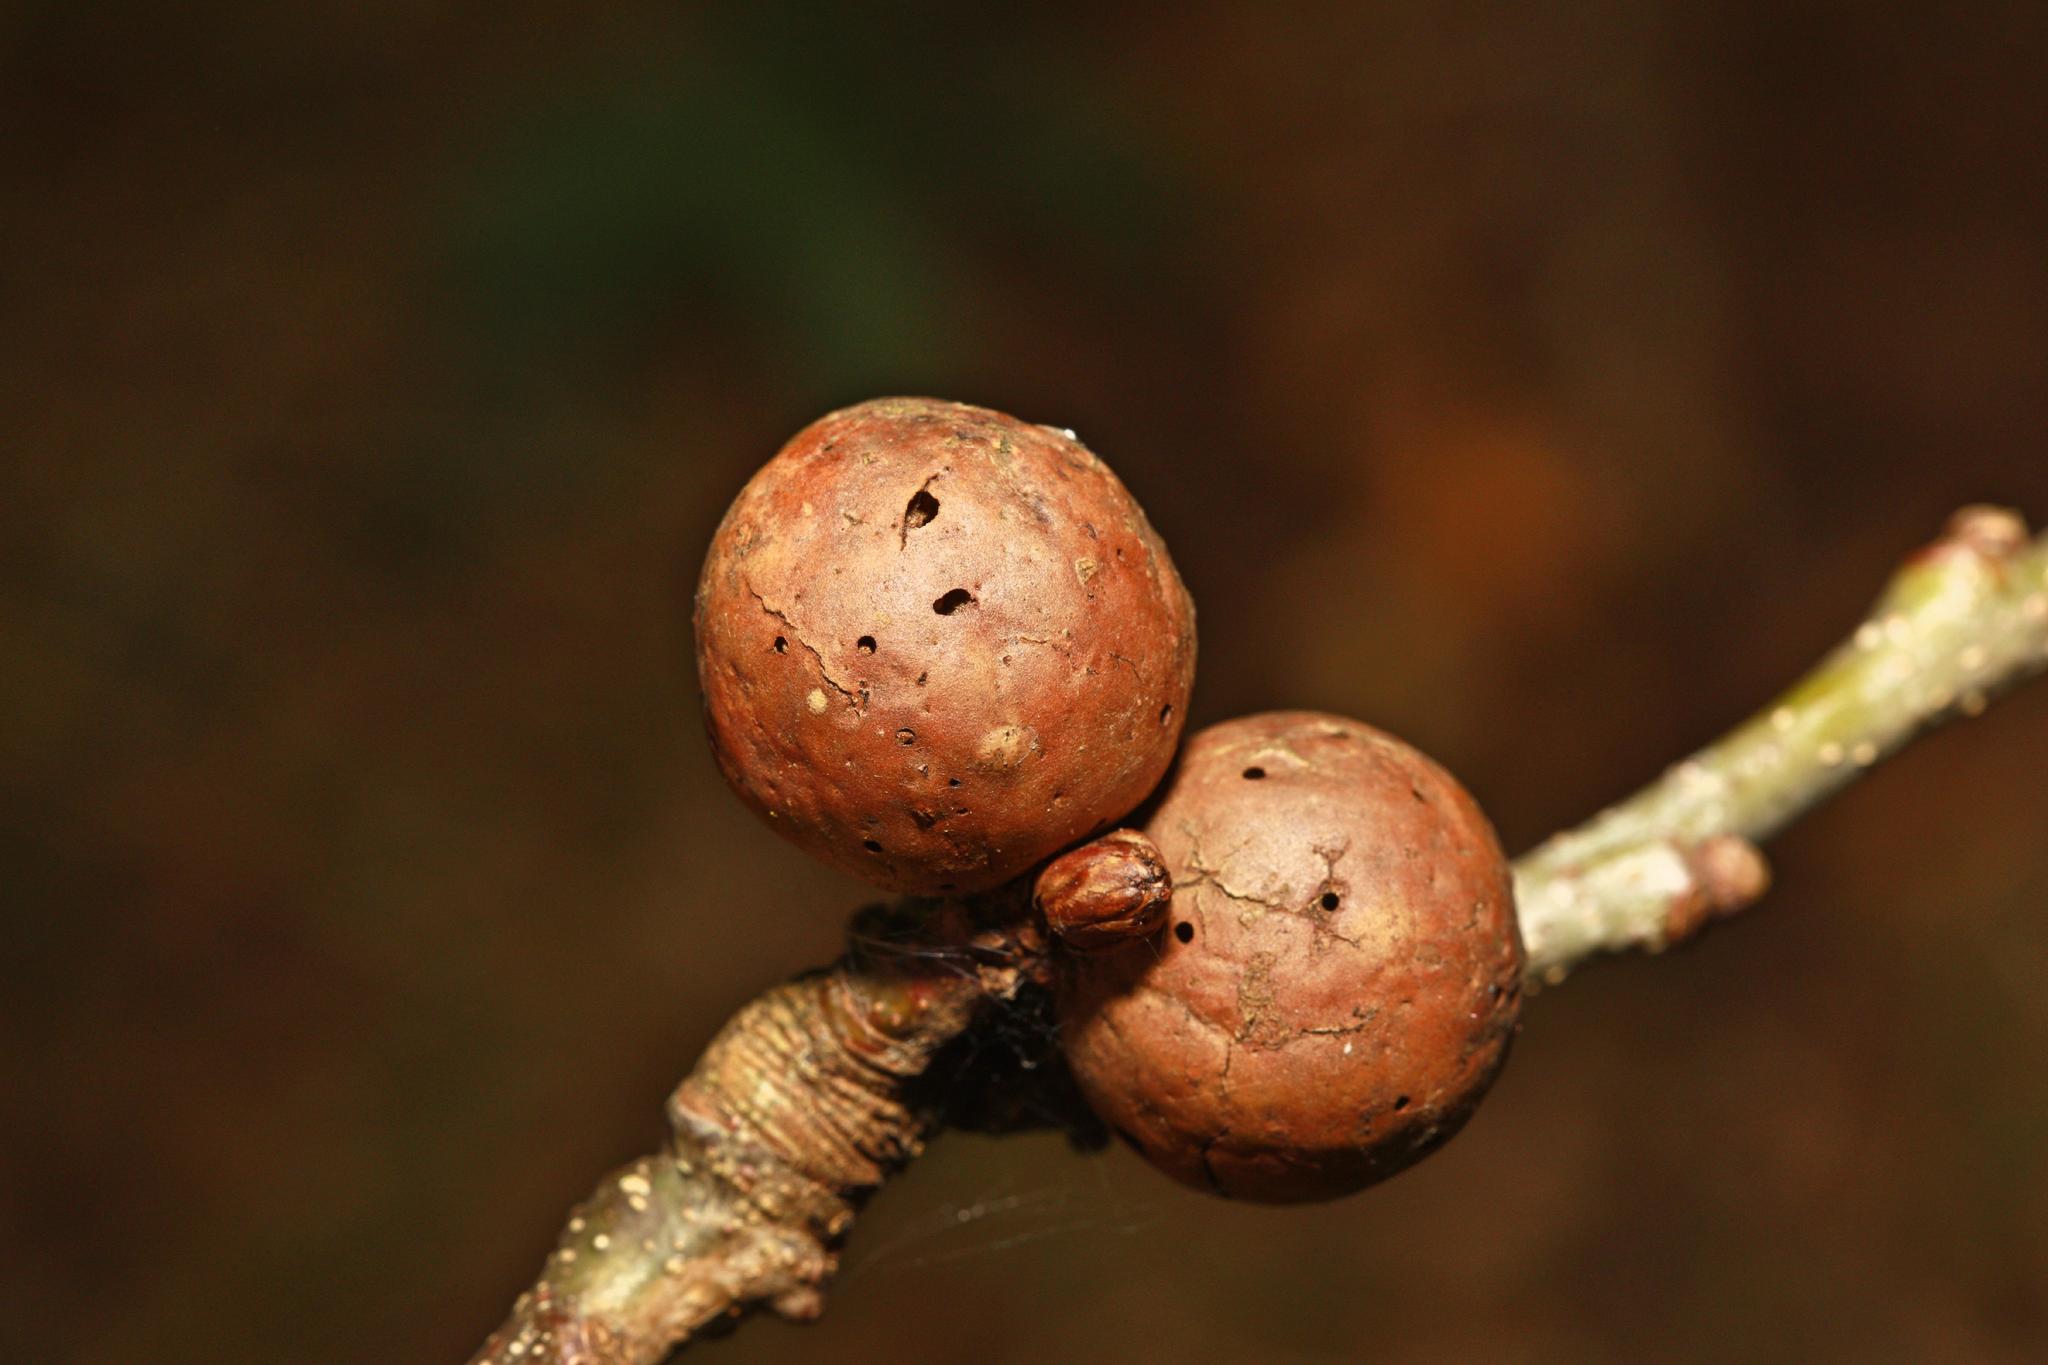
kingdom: Animalia
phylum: Arthropoda
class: Insecta
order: Hymenoptera
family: Cynipidae
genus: Andricus
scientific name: Andricus kollari
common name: Marble gall
